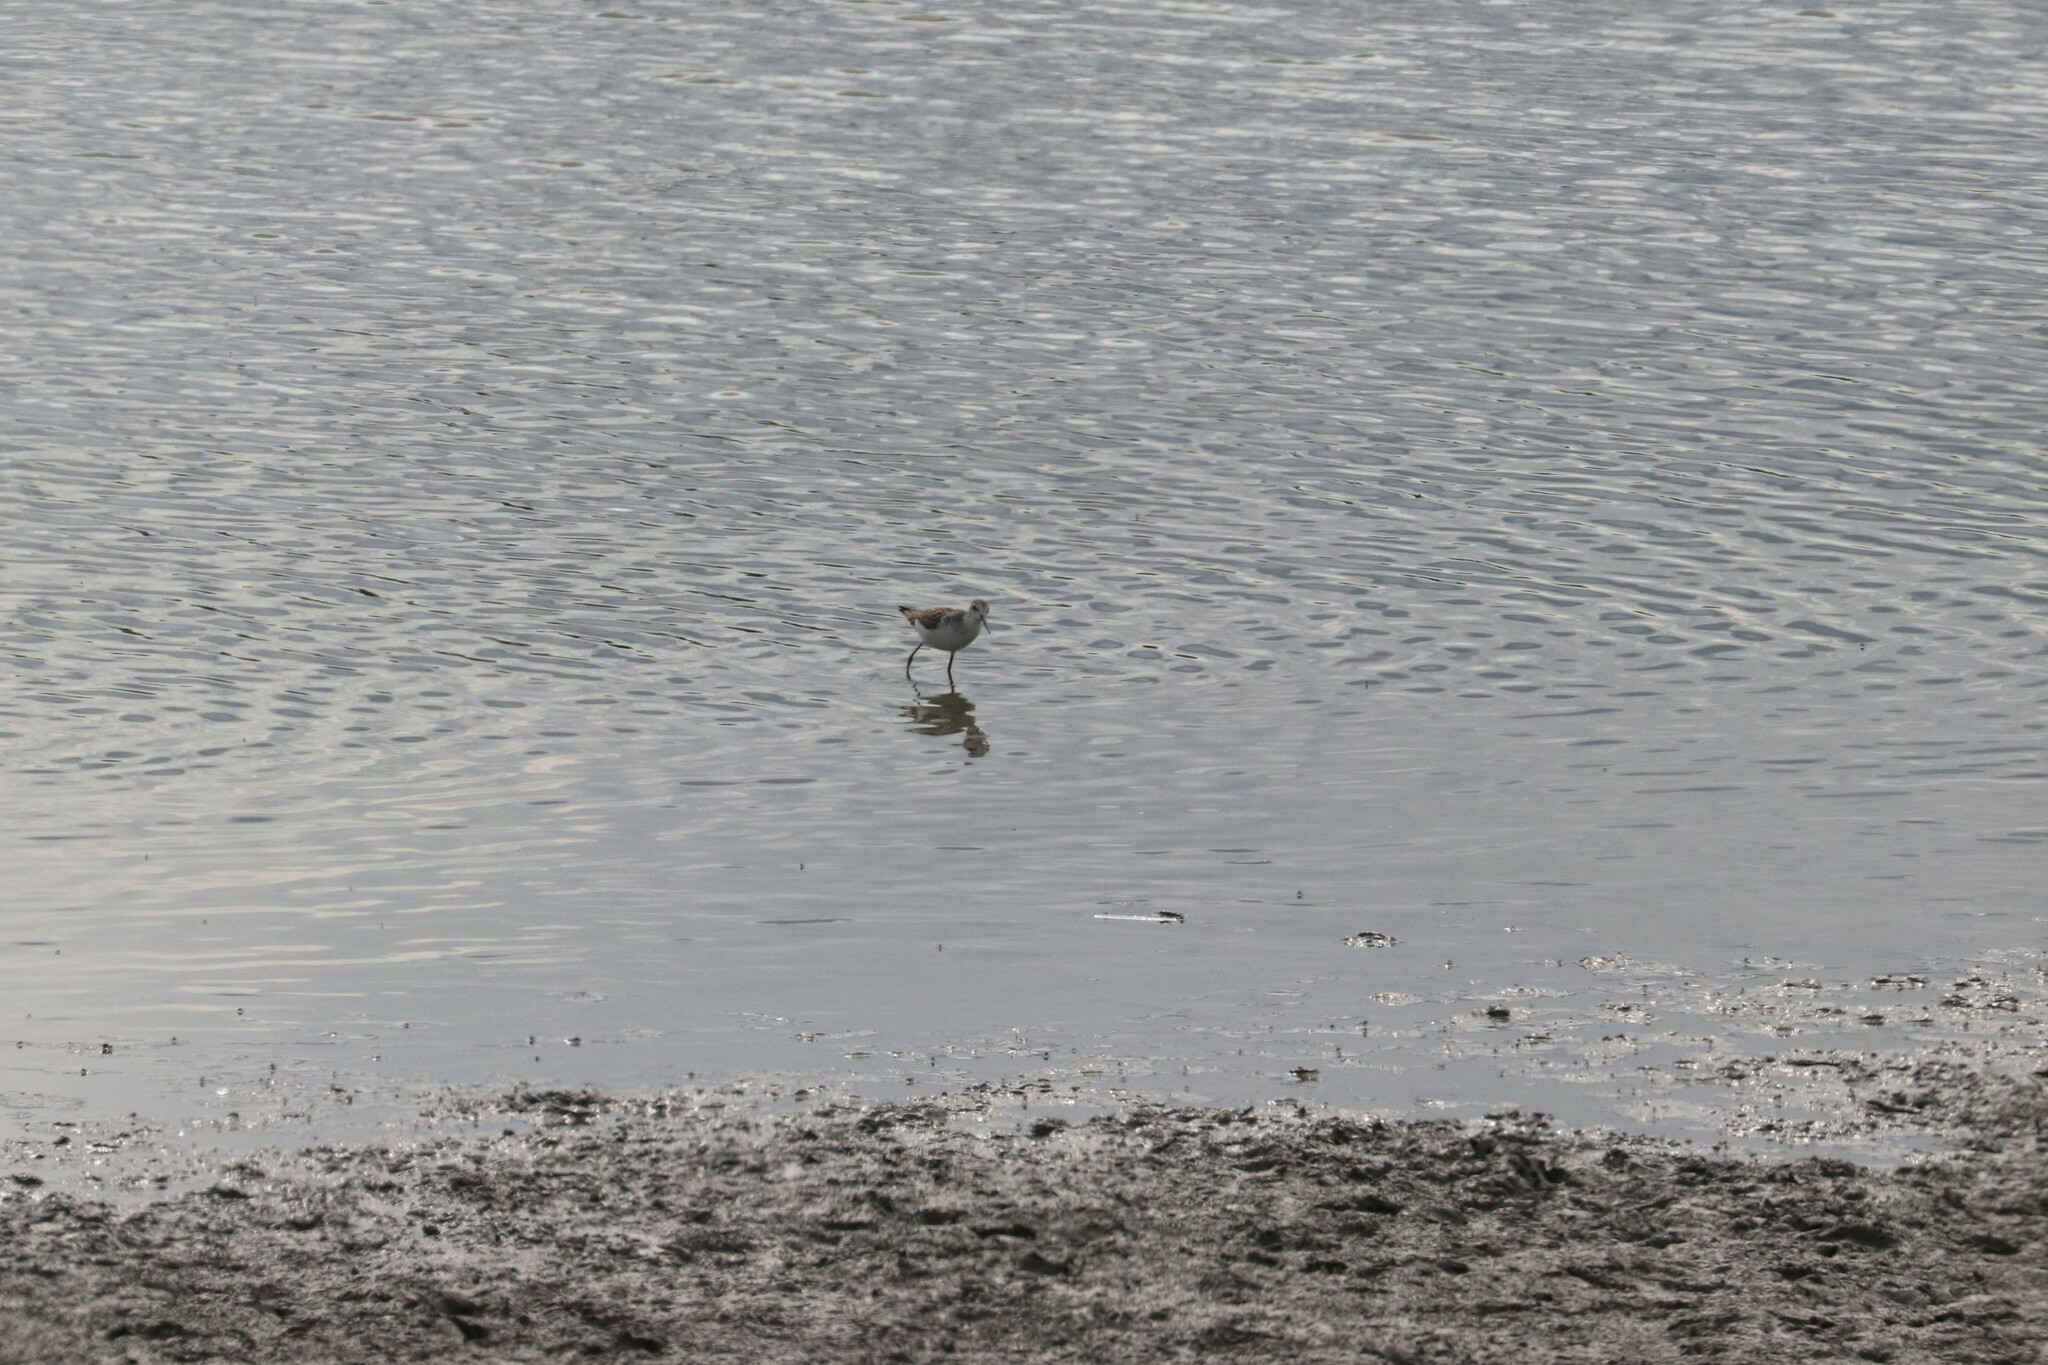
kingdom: Animalia
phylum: Chordata
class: Aves
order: Charadriiformes
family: Scolopacidae
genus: Tringa
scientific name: Tringa stagnatilis
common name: Marsh sandpiper
